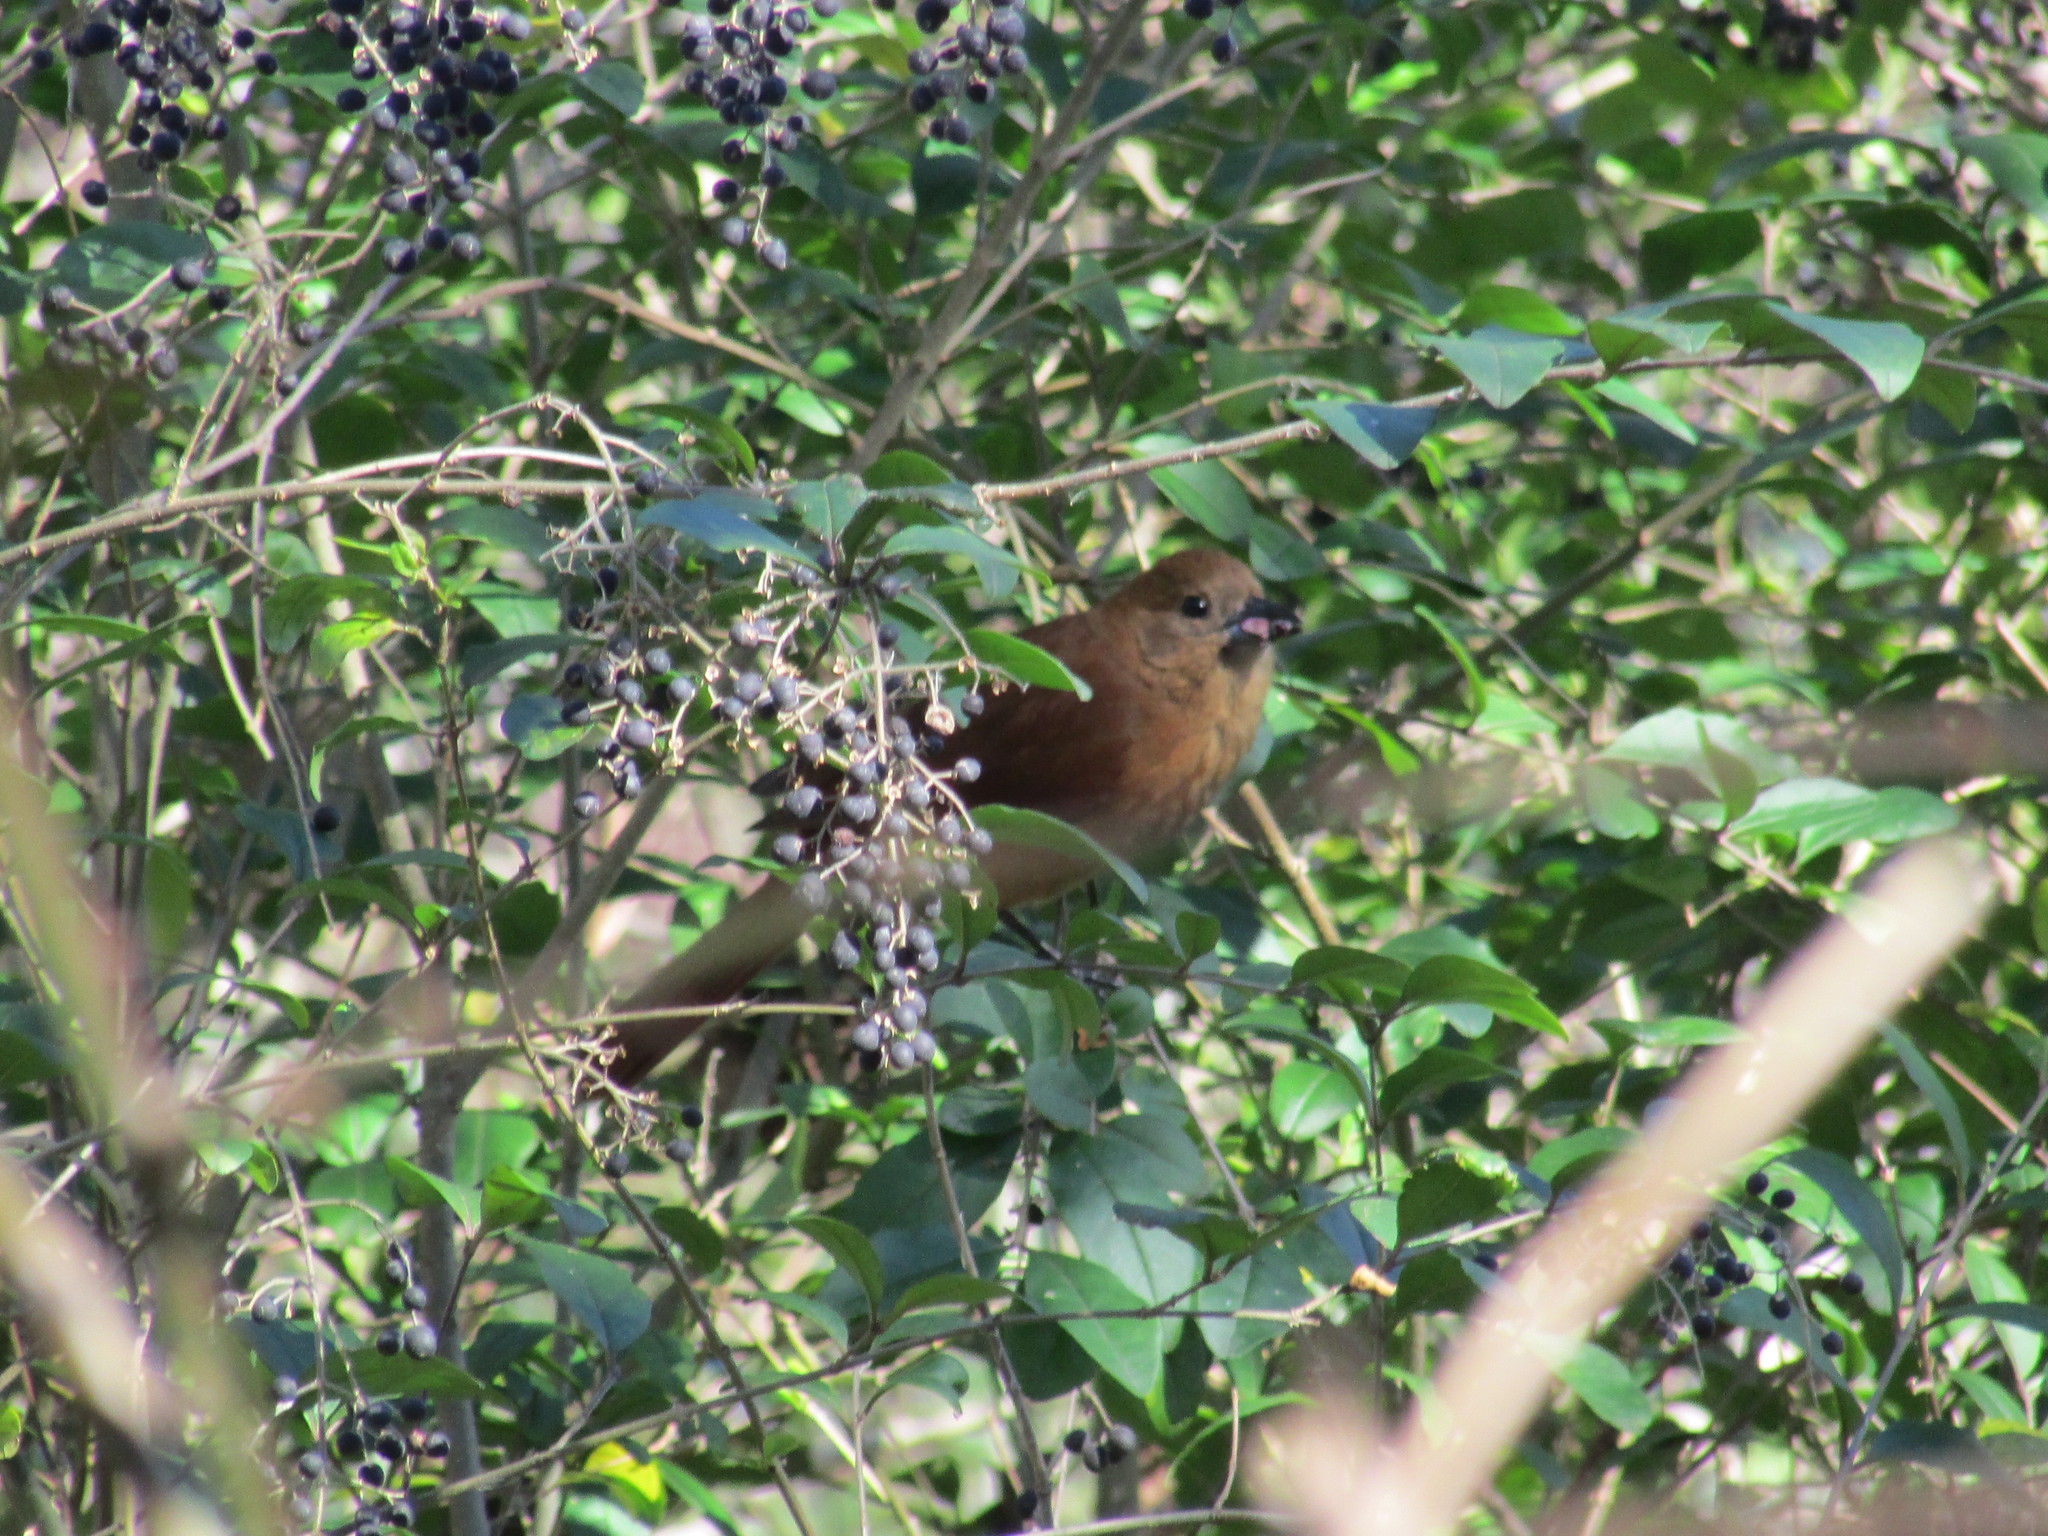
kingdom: Animalia
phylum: Chordata
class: Aves
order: Passeriformes
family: Thraupidae
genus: Tachyphonus
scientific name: Tachyphonus rufus
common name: White-lined tanager
